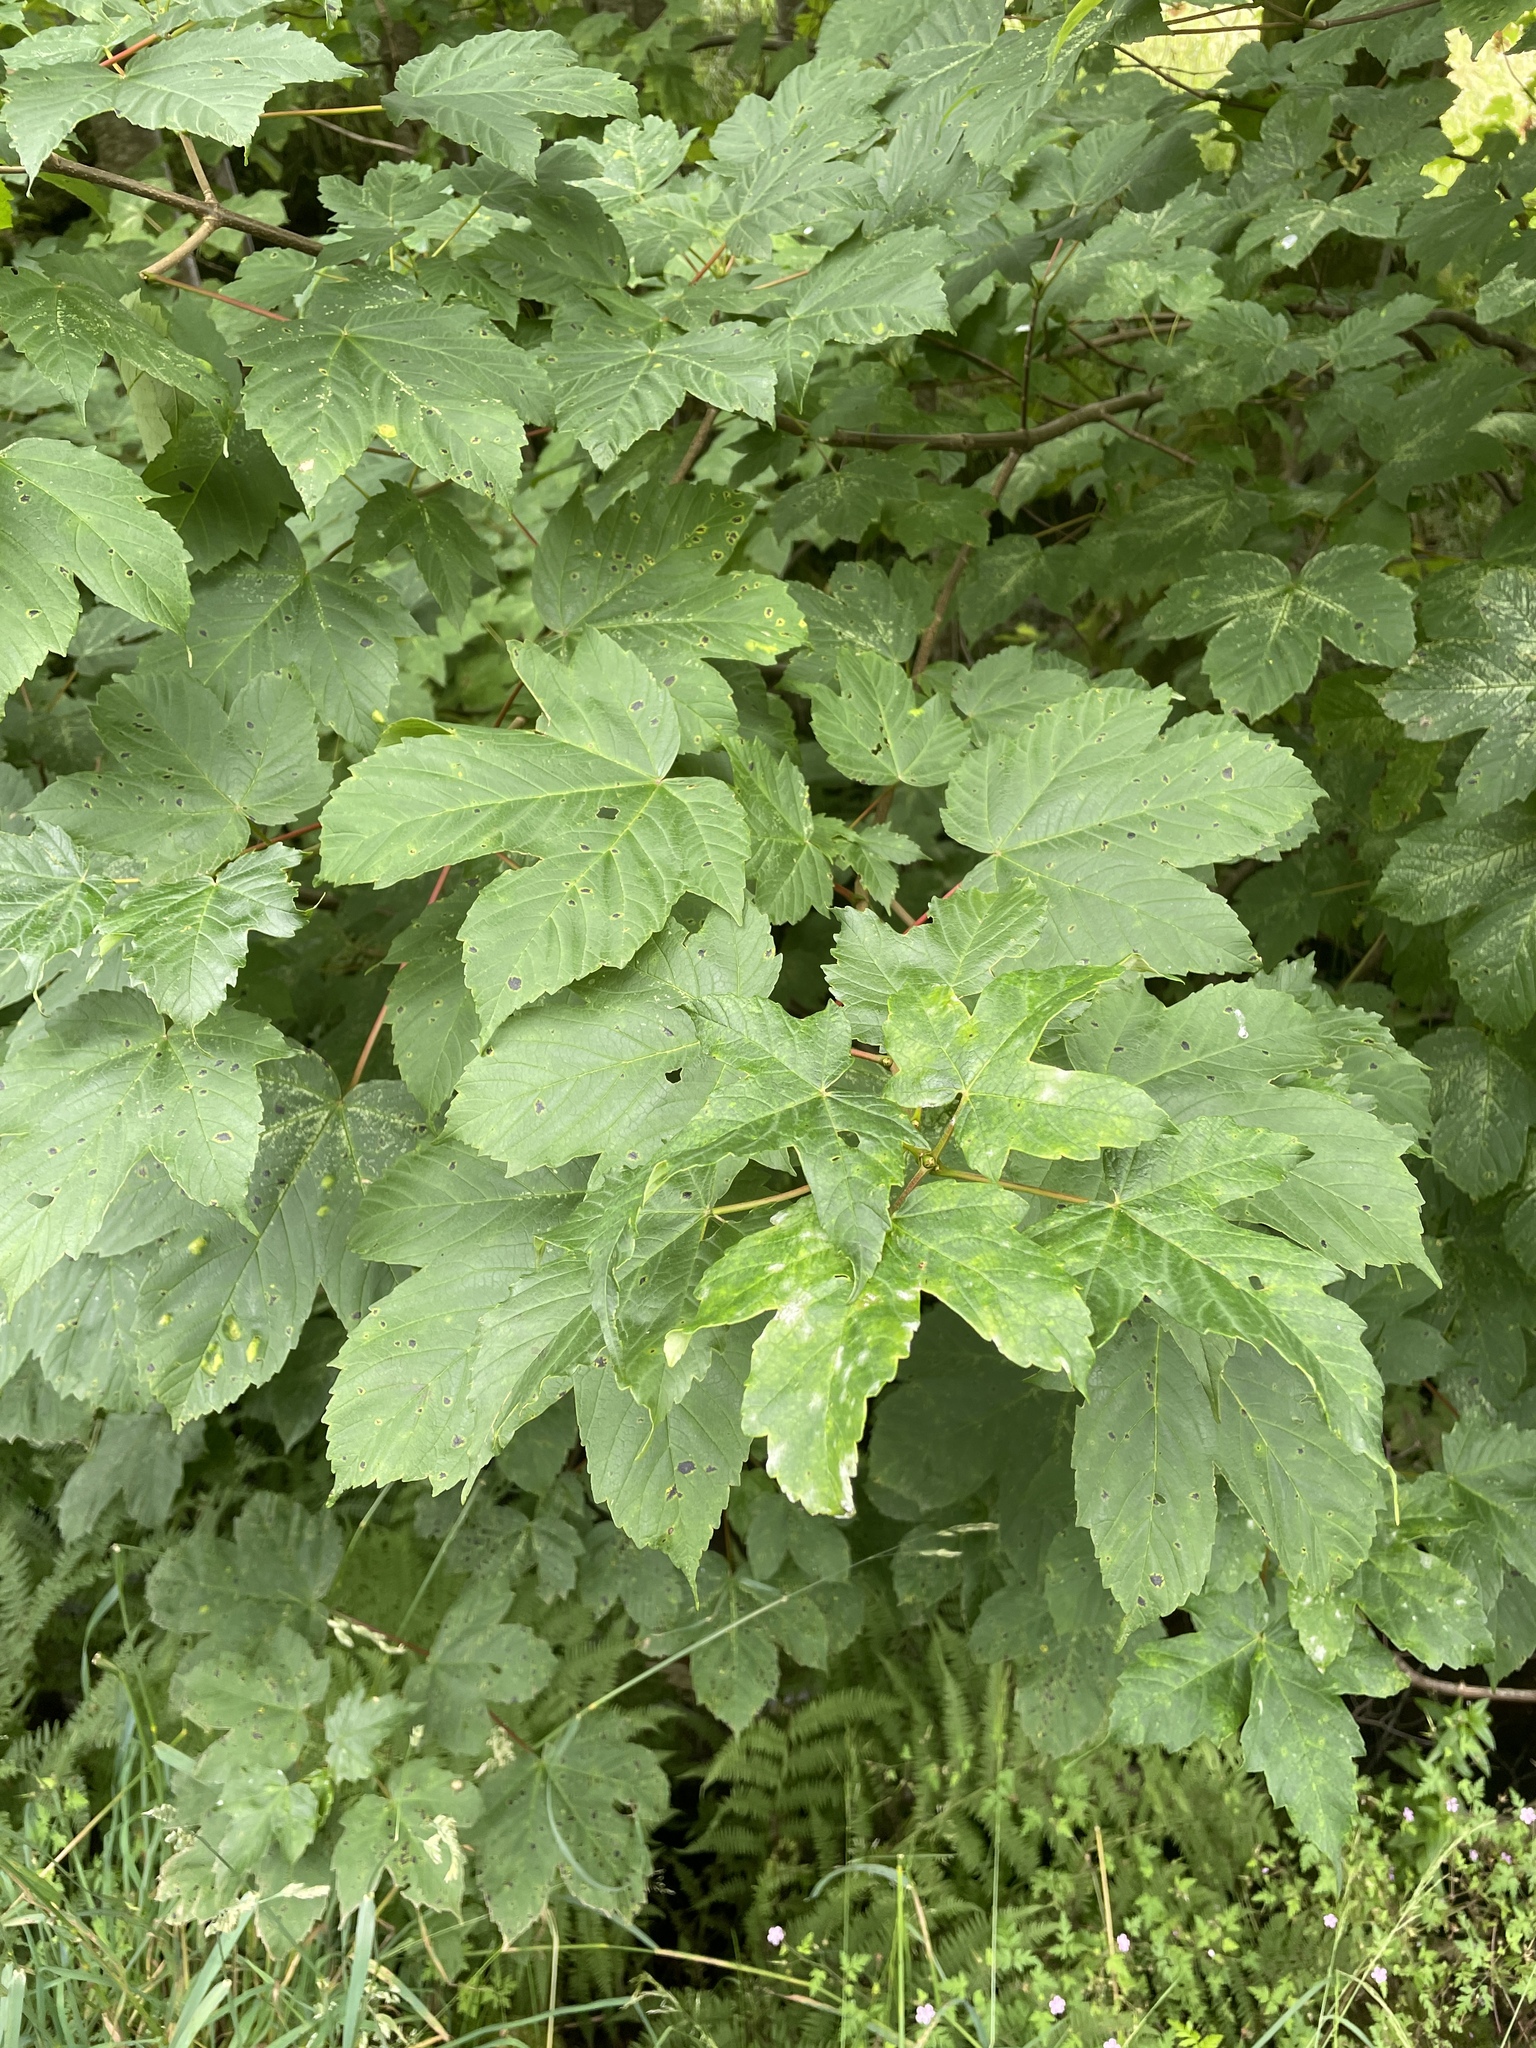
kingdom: Plantae
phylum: Tracheophyta
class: Magnoliopsida
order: Sapindales
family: Sapindaceae
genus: Acer
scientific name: Acer pseudoplatanus
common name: Sycamore
